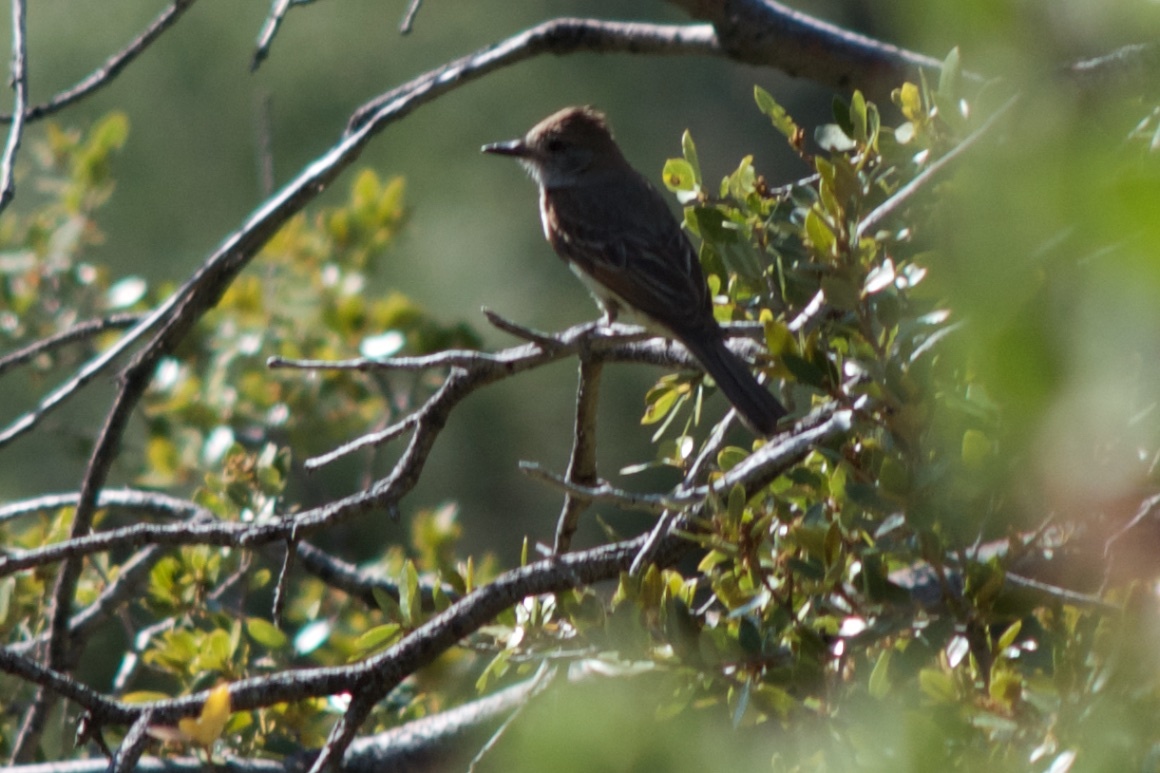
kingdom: Animalia
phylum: Chordata
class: Aves
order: Passeriformes
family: Tyrannidae
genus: Myiarchus
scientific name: Myiarchus cinerascens
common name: Ash-throated flycatcher
